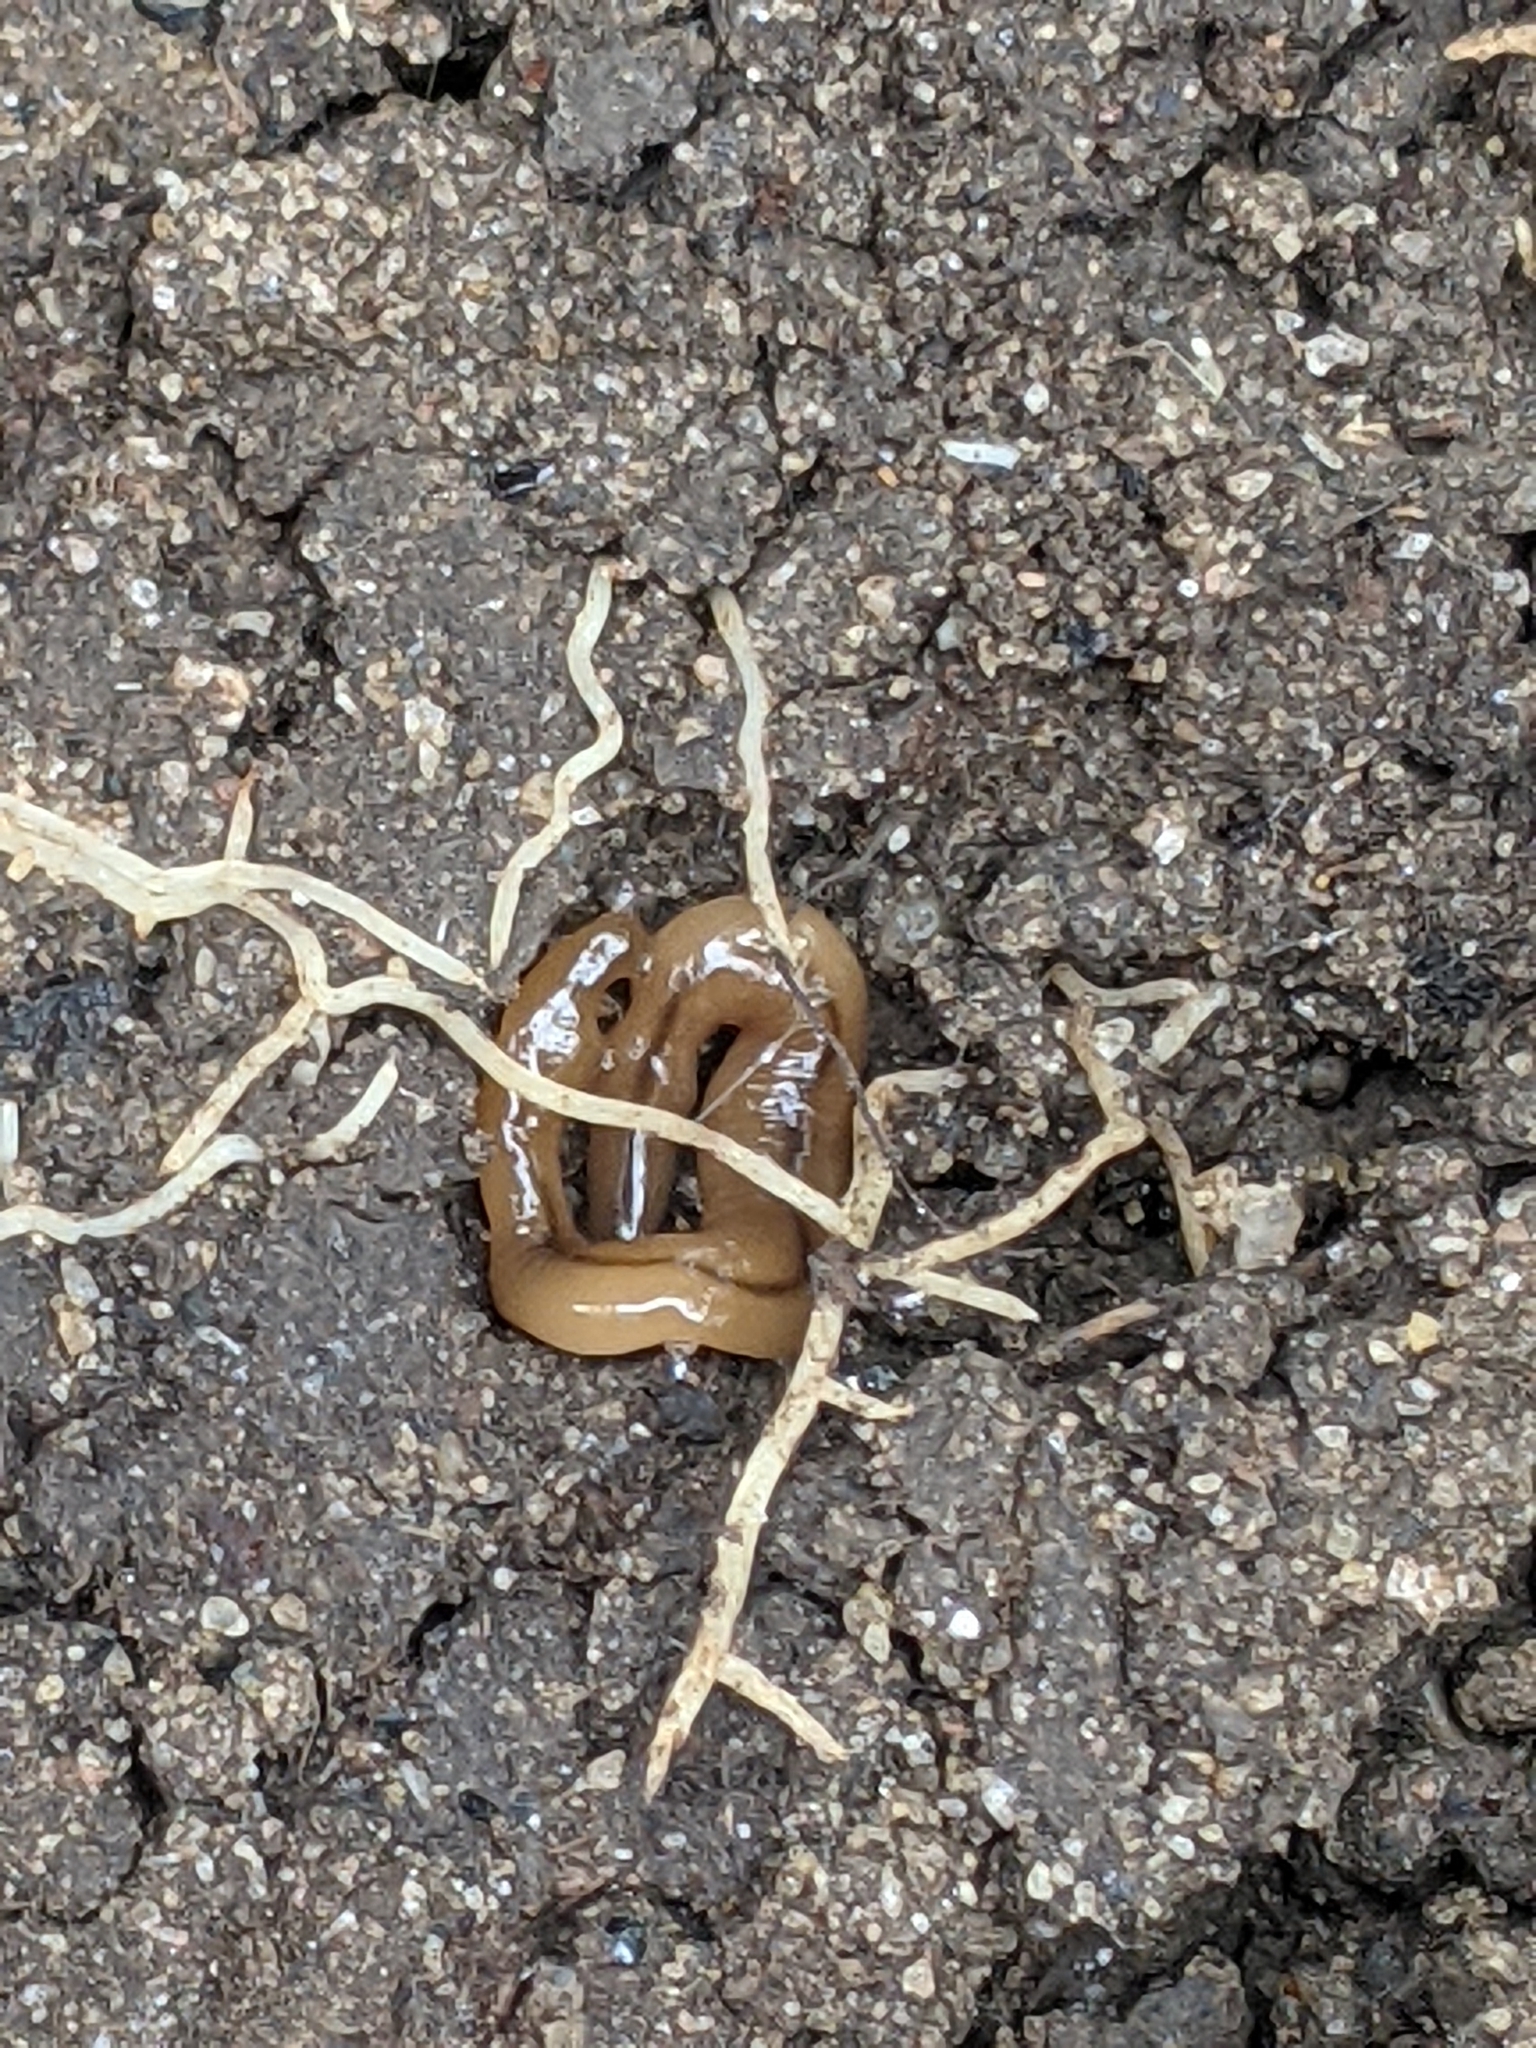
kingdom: Animalia
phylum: Platyhelminthes
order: Tricladida
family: Geoplanidae
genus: Bipalium
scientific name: Bipalium adventitium
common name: Land planarian
